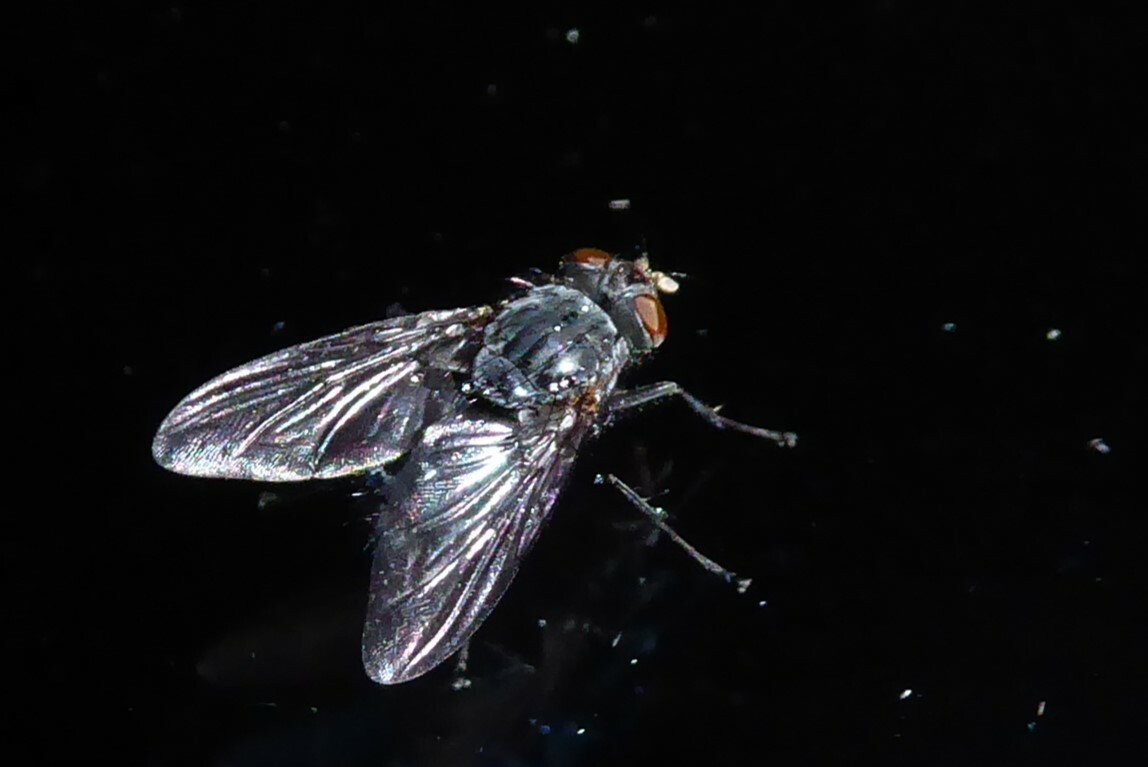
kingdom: Animalia
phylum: Arthropoda
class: Insecta
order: Diptera
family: Calliphoridae
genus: Calliphora
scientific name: Calliphora vicina
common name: Common blow flie
